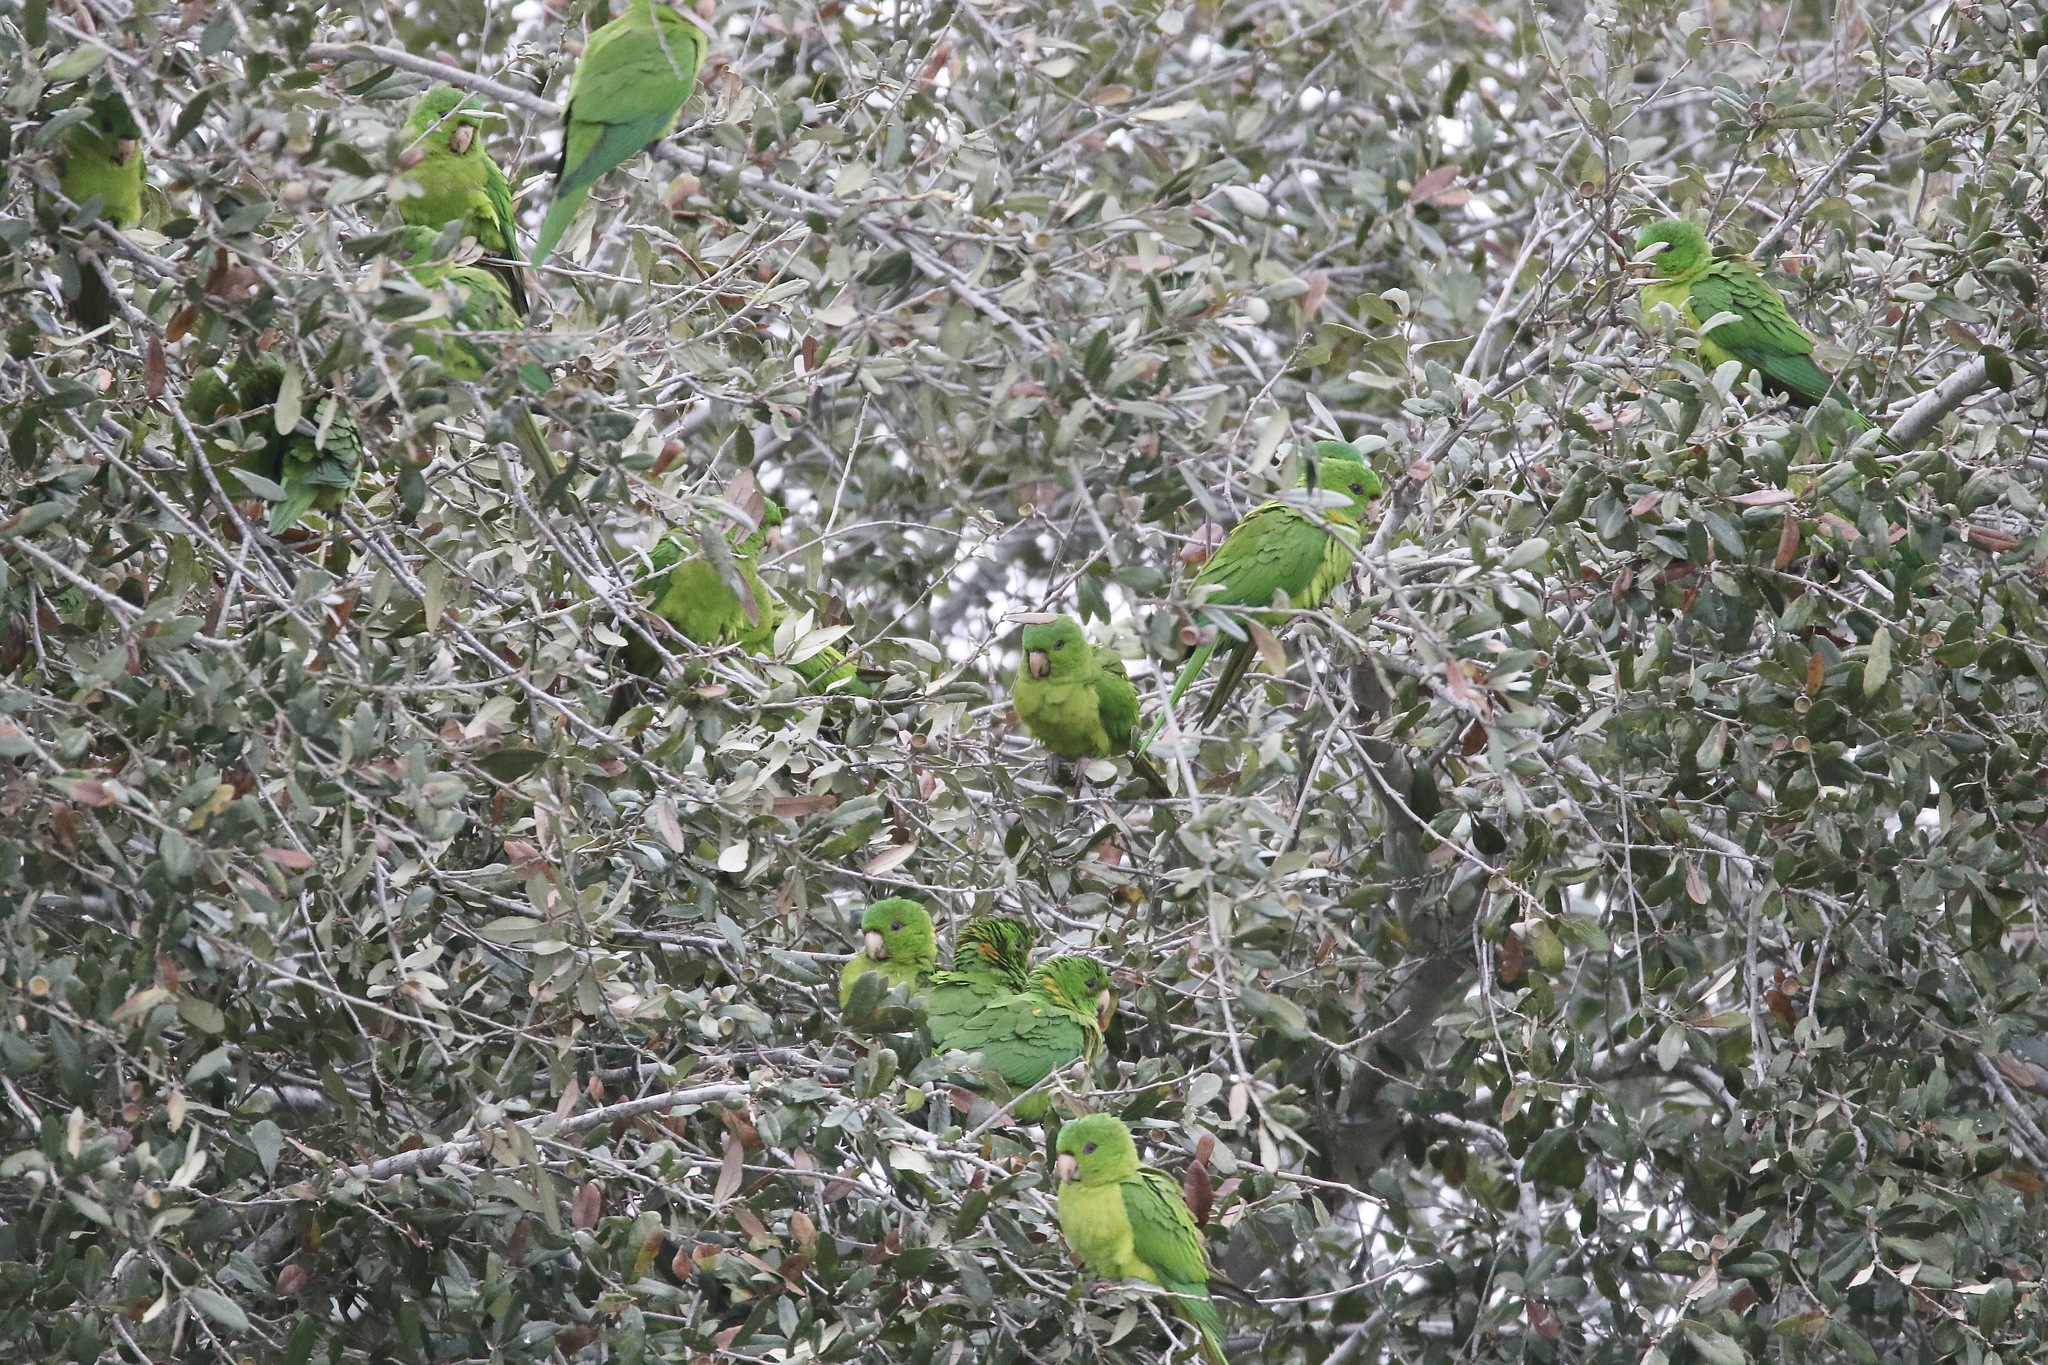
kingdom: Animalia
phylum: Chordata
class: Aves
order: Psittaciformes
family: Psittacidae
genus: Aratinga
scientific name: Aratinga holochlora
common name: Green parakeet
